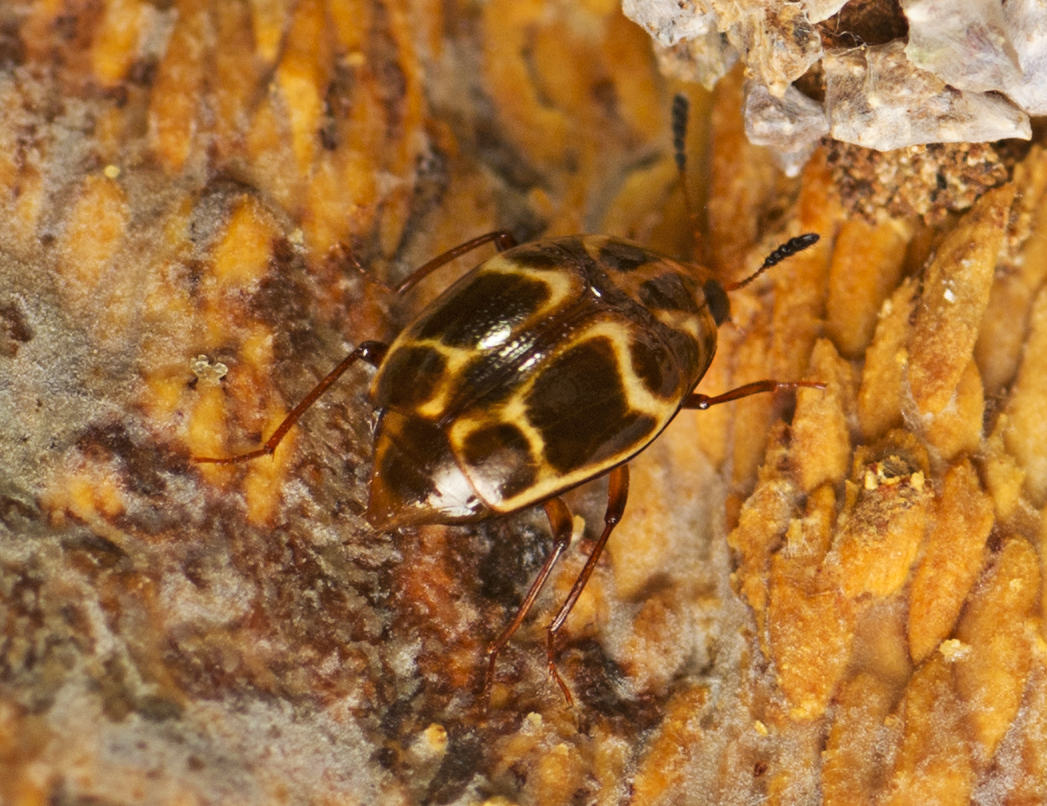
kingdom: Animalia
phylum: Arthropoda
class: Insecta
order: Coleoptera
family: Staphylinidae
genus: Scaphidium
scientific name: Scaphidium exornatum
